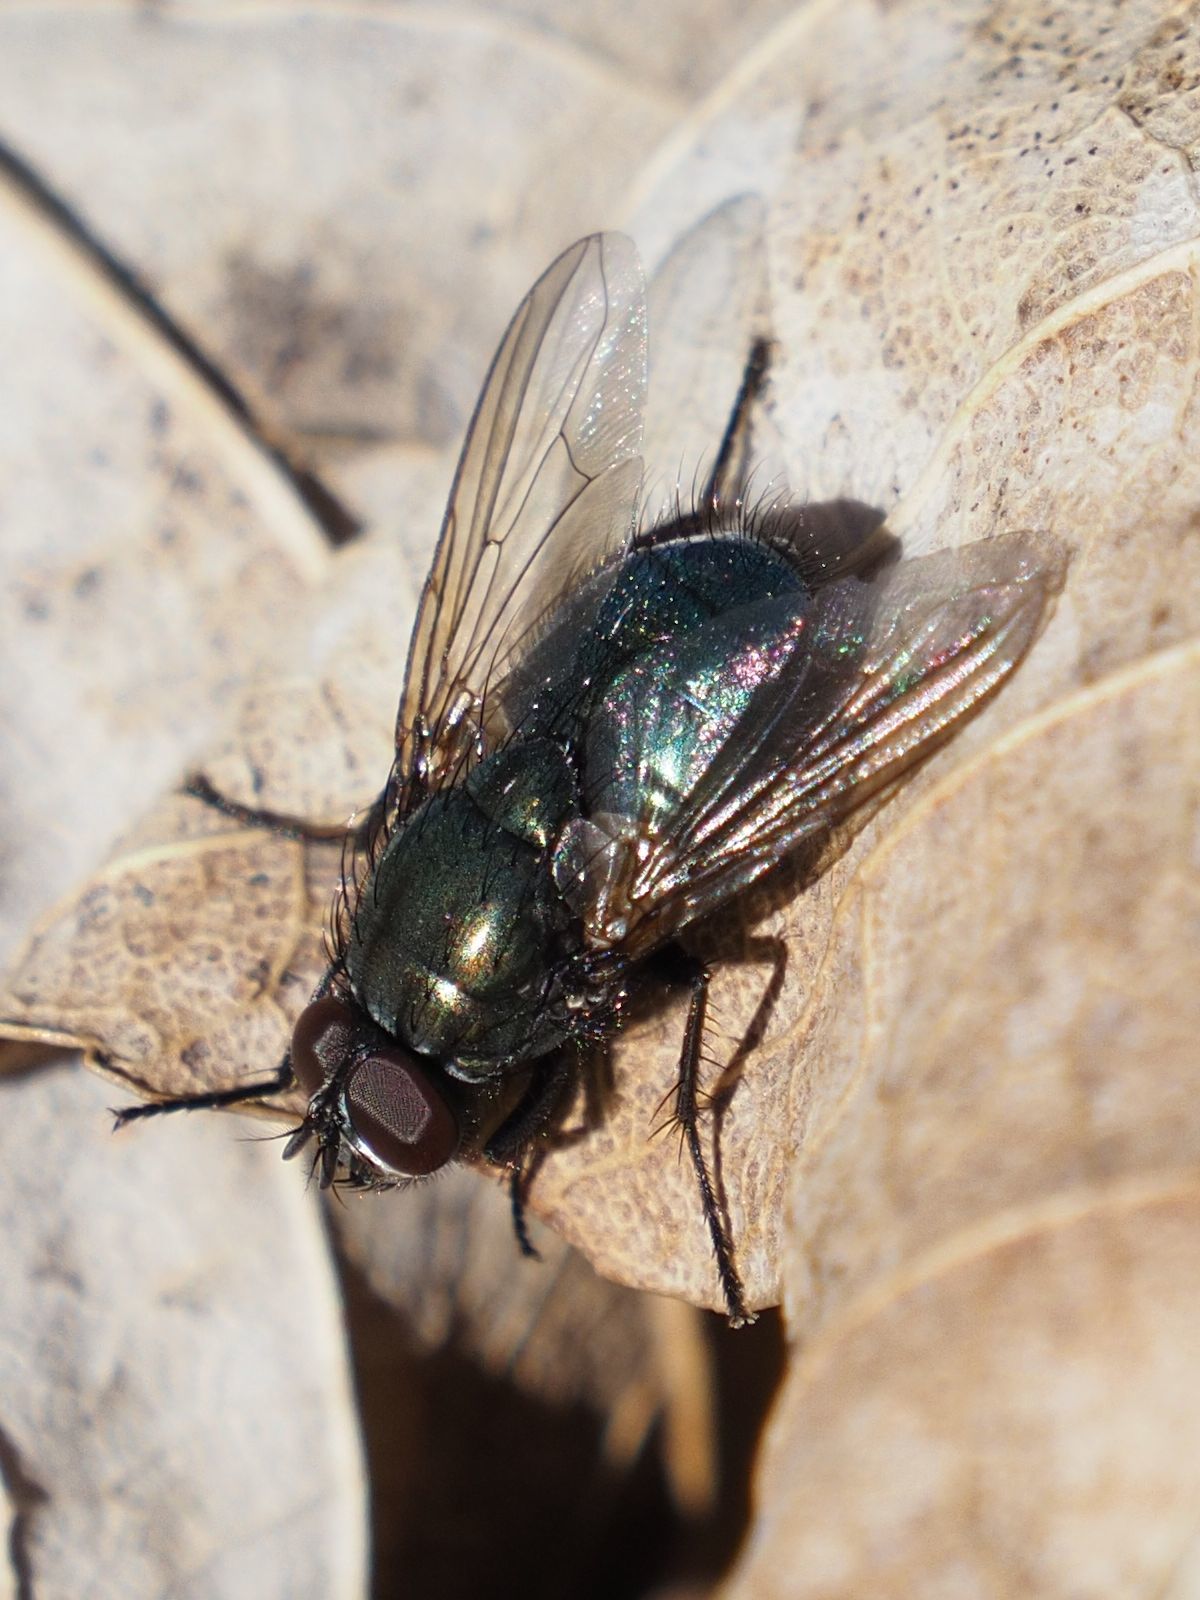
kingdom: Animalia
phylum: Arthropoda
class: Insecta
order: Diptera
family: Muscidae
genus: Dasyphora
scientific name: Dasyphora cyanella
